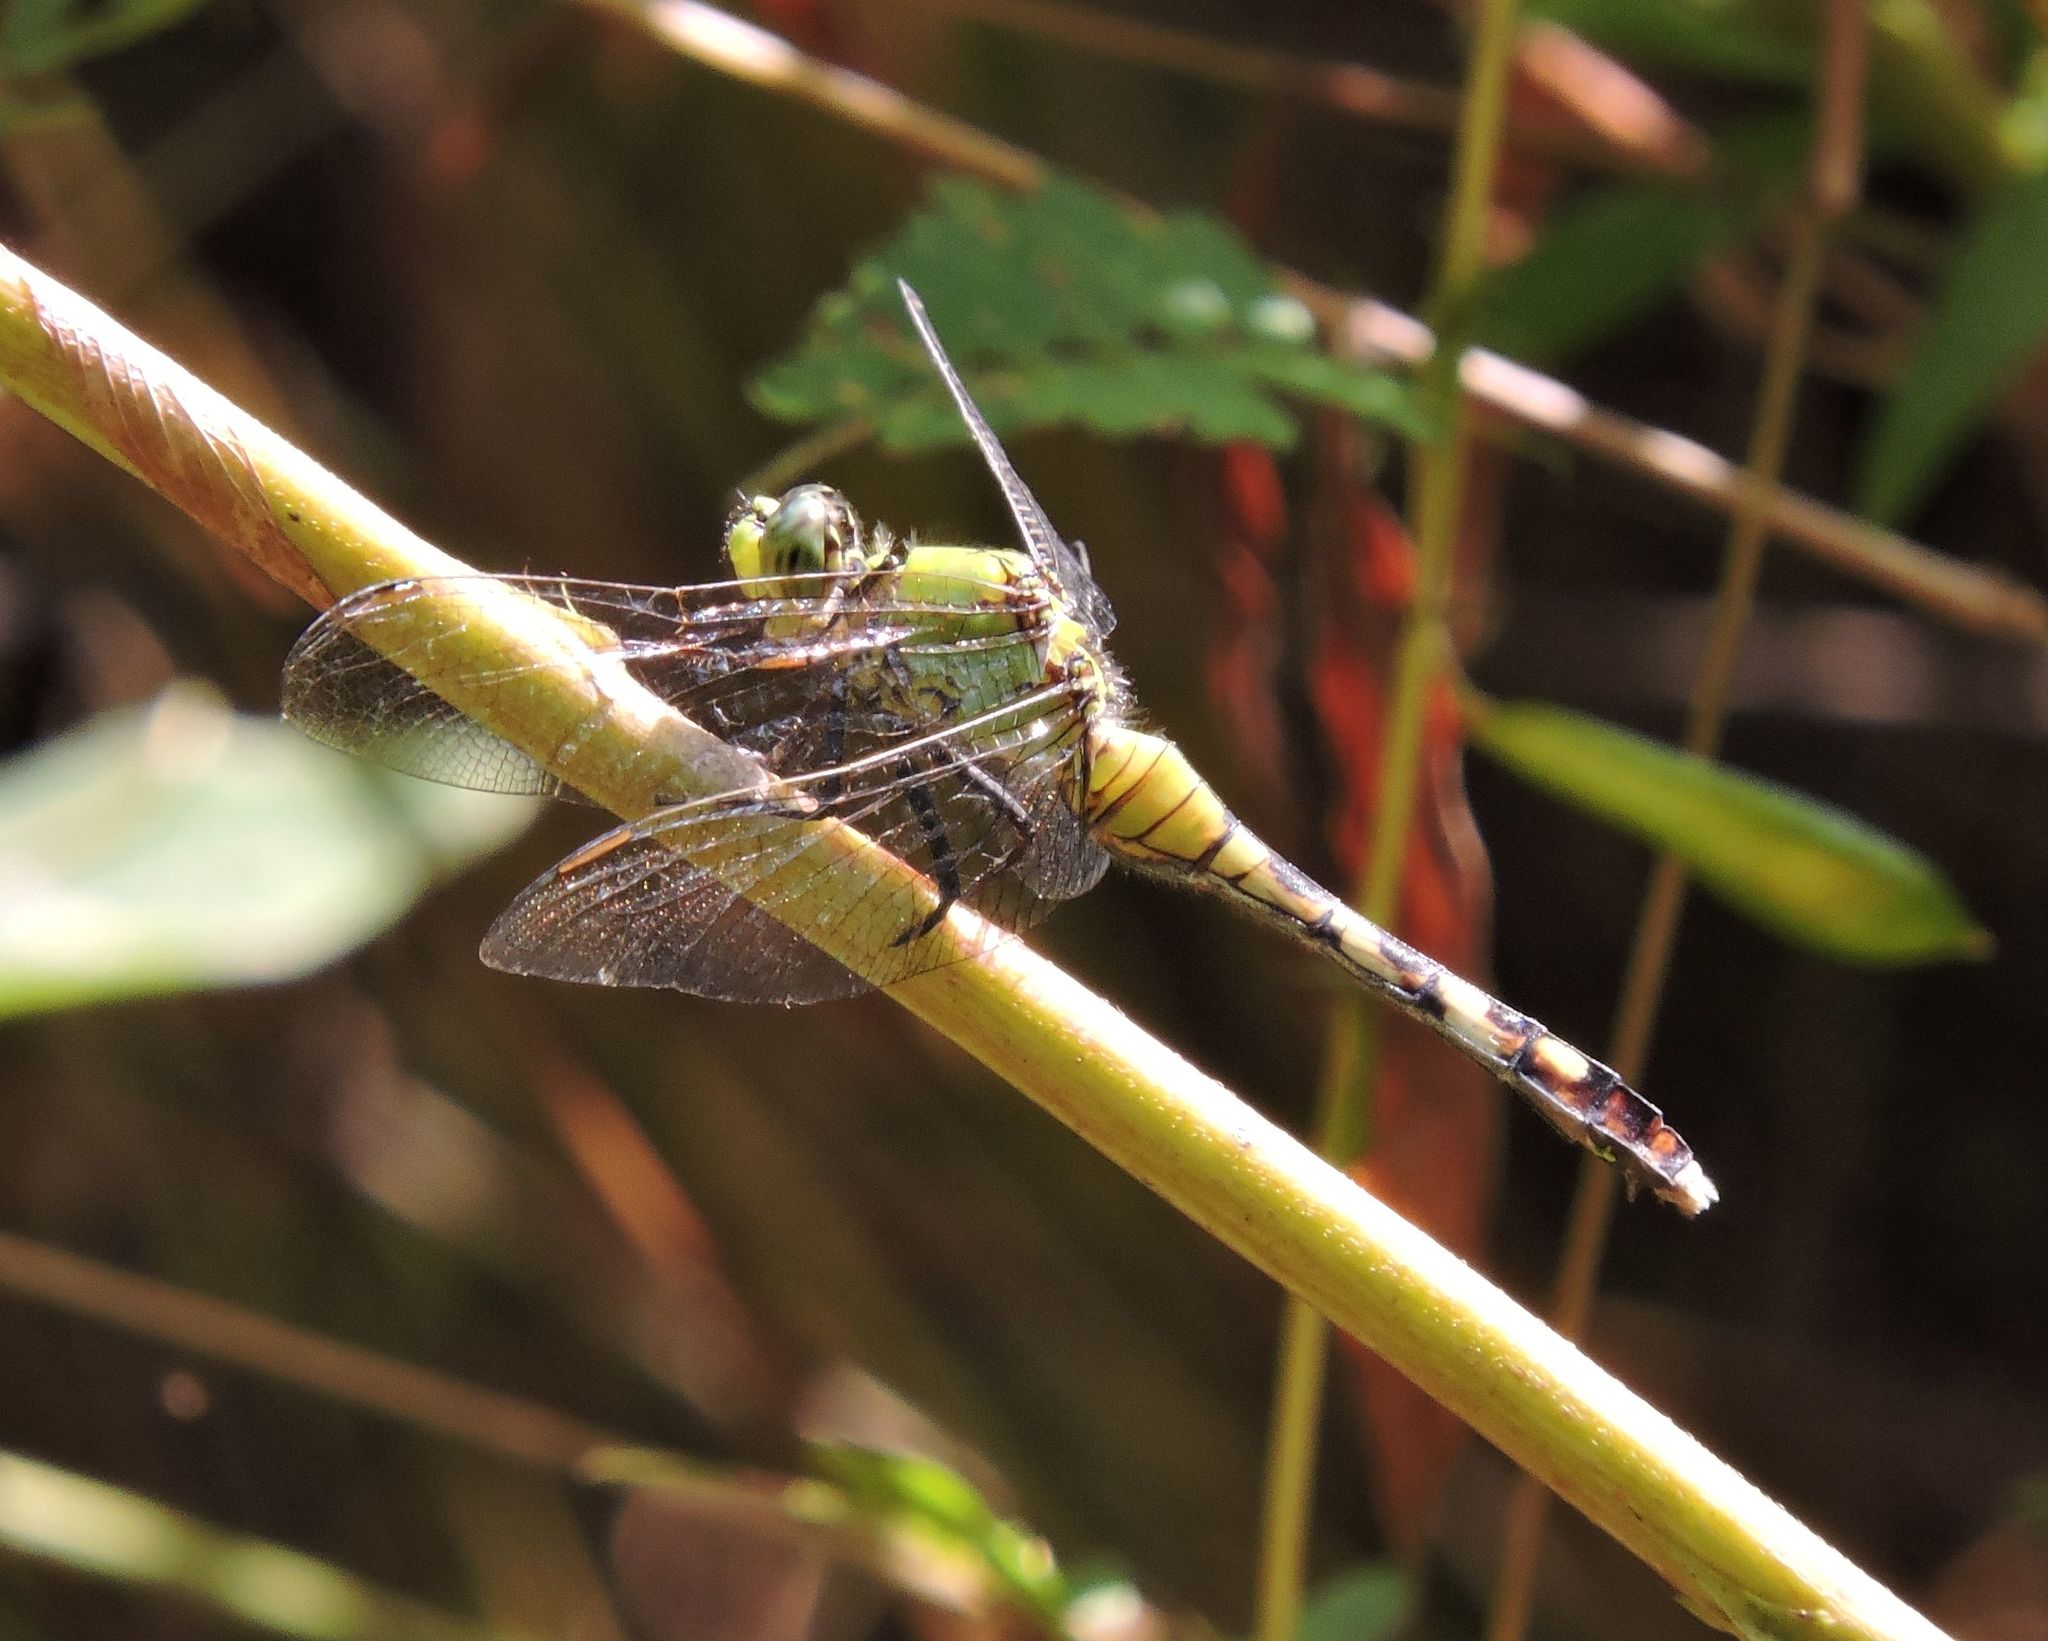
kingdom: Animalia
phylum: Arthropoda
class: Insecta
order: Odonata
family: Libellulidae
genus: Erythemis
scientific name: Erythemis simplicicollis
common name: Eastern pondhawk
